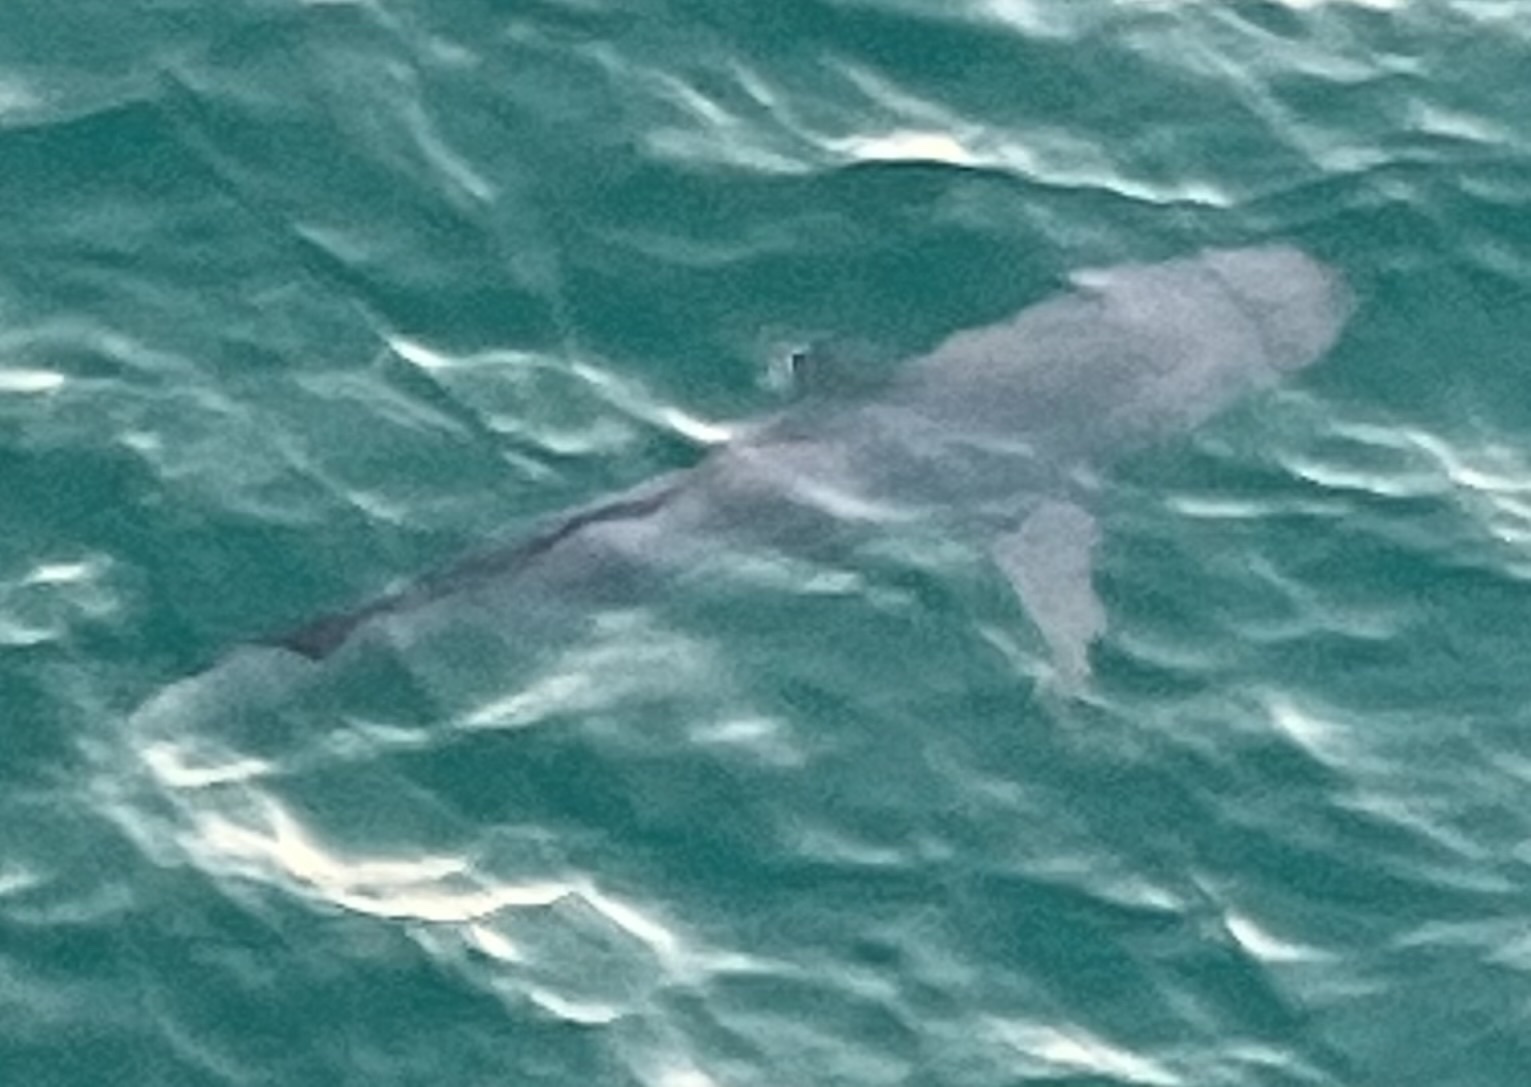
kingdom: Animalia
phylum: Chordata
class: Elasmobranchii
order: Carcharhiniformes
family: Carcharhinidae
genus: Carcharhinus
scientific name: Carcharhinus limbatus
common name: Blacktip shark
